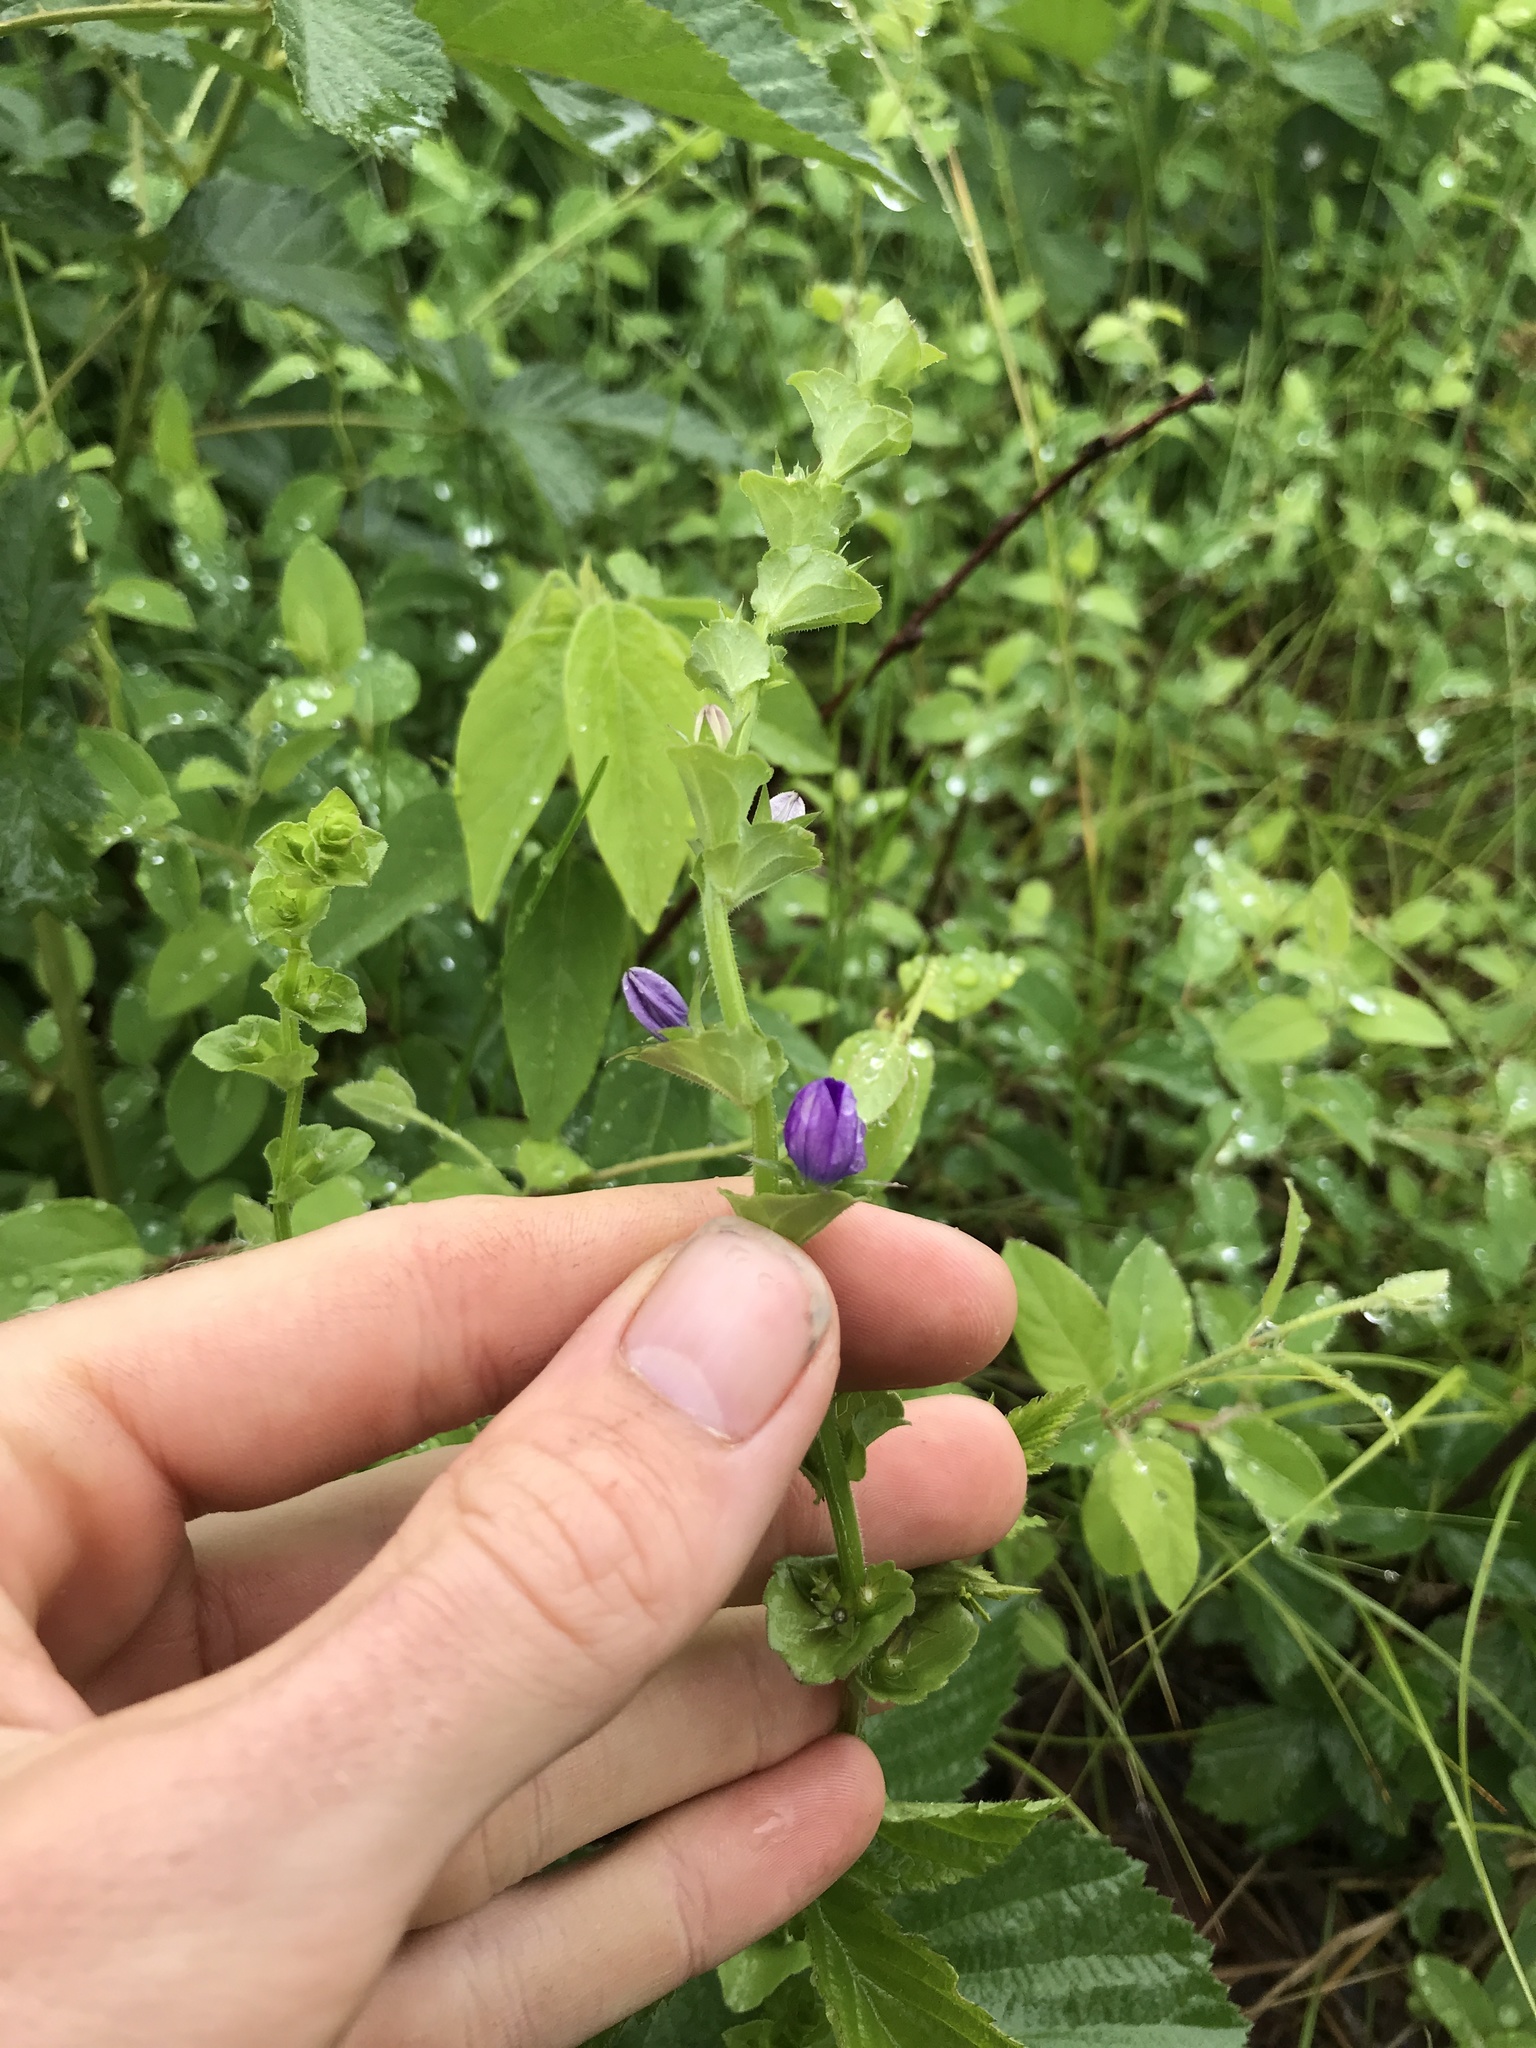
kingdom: Plantae
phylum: Tracheophyta
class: Magnoliopsida
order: Asterales
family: Campanulaceae
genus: Triodanis
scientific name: Triodanis perfoliata
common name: Clasping venus' looking-glass
